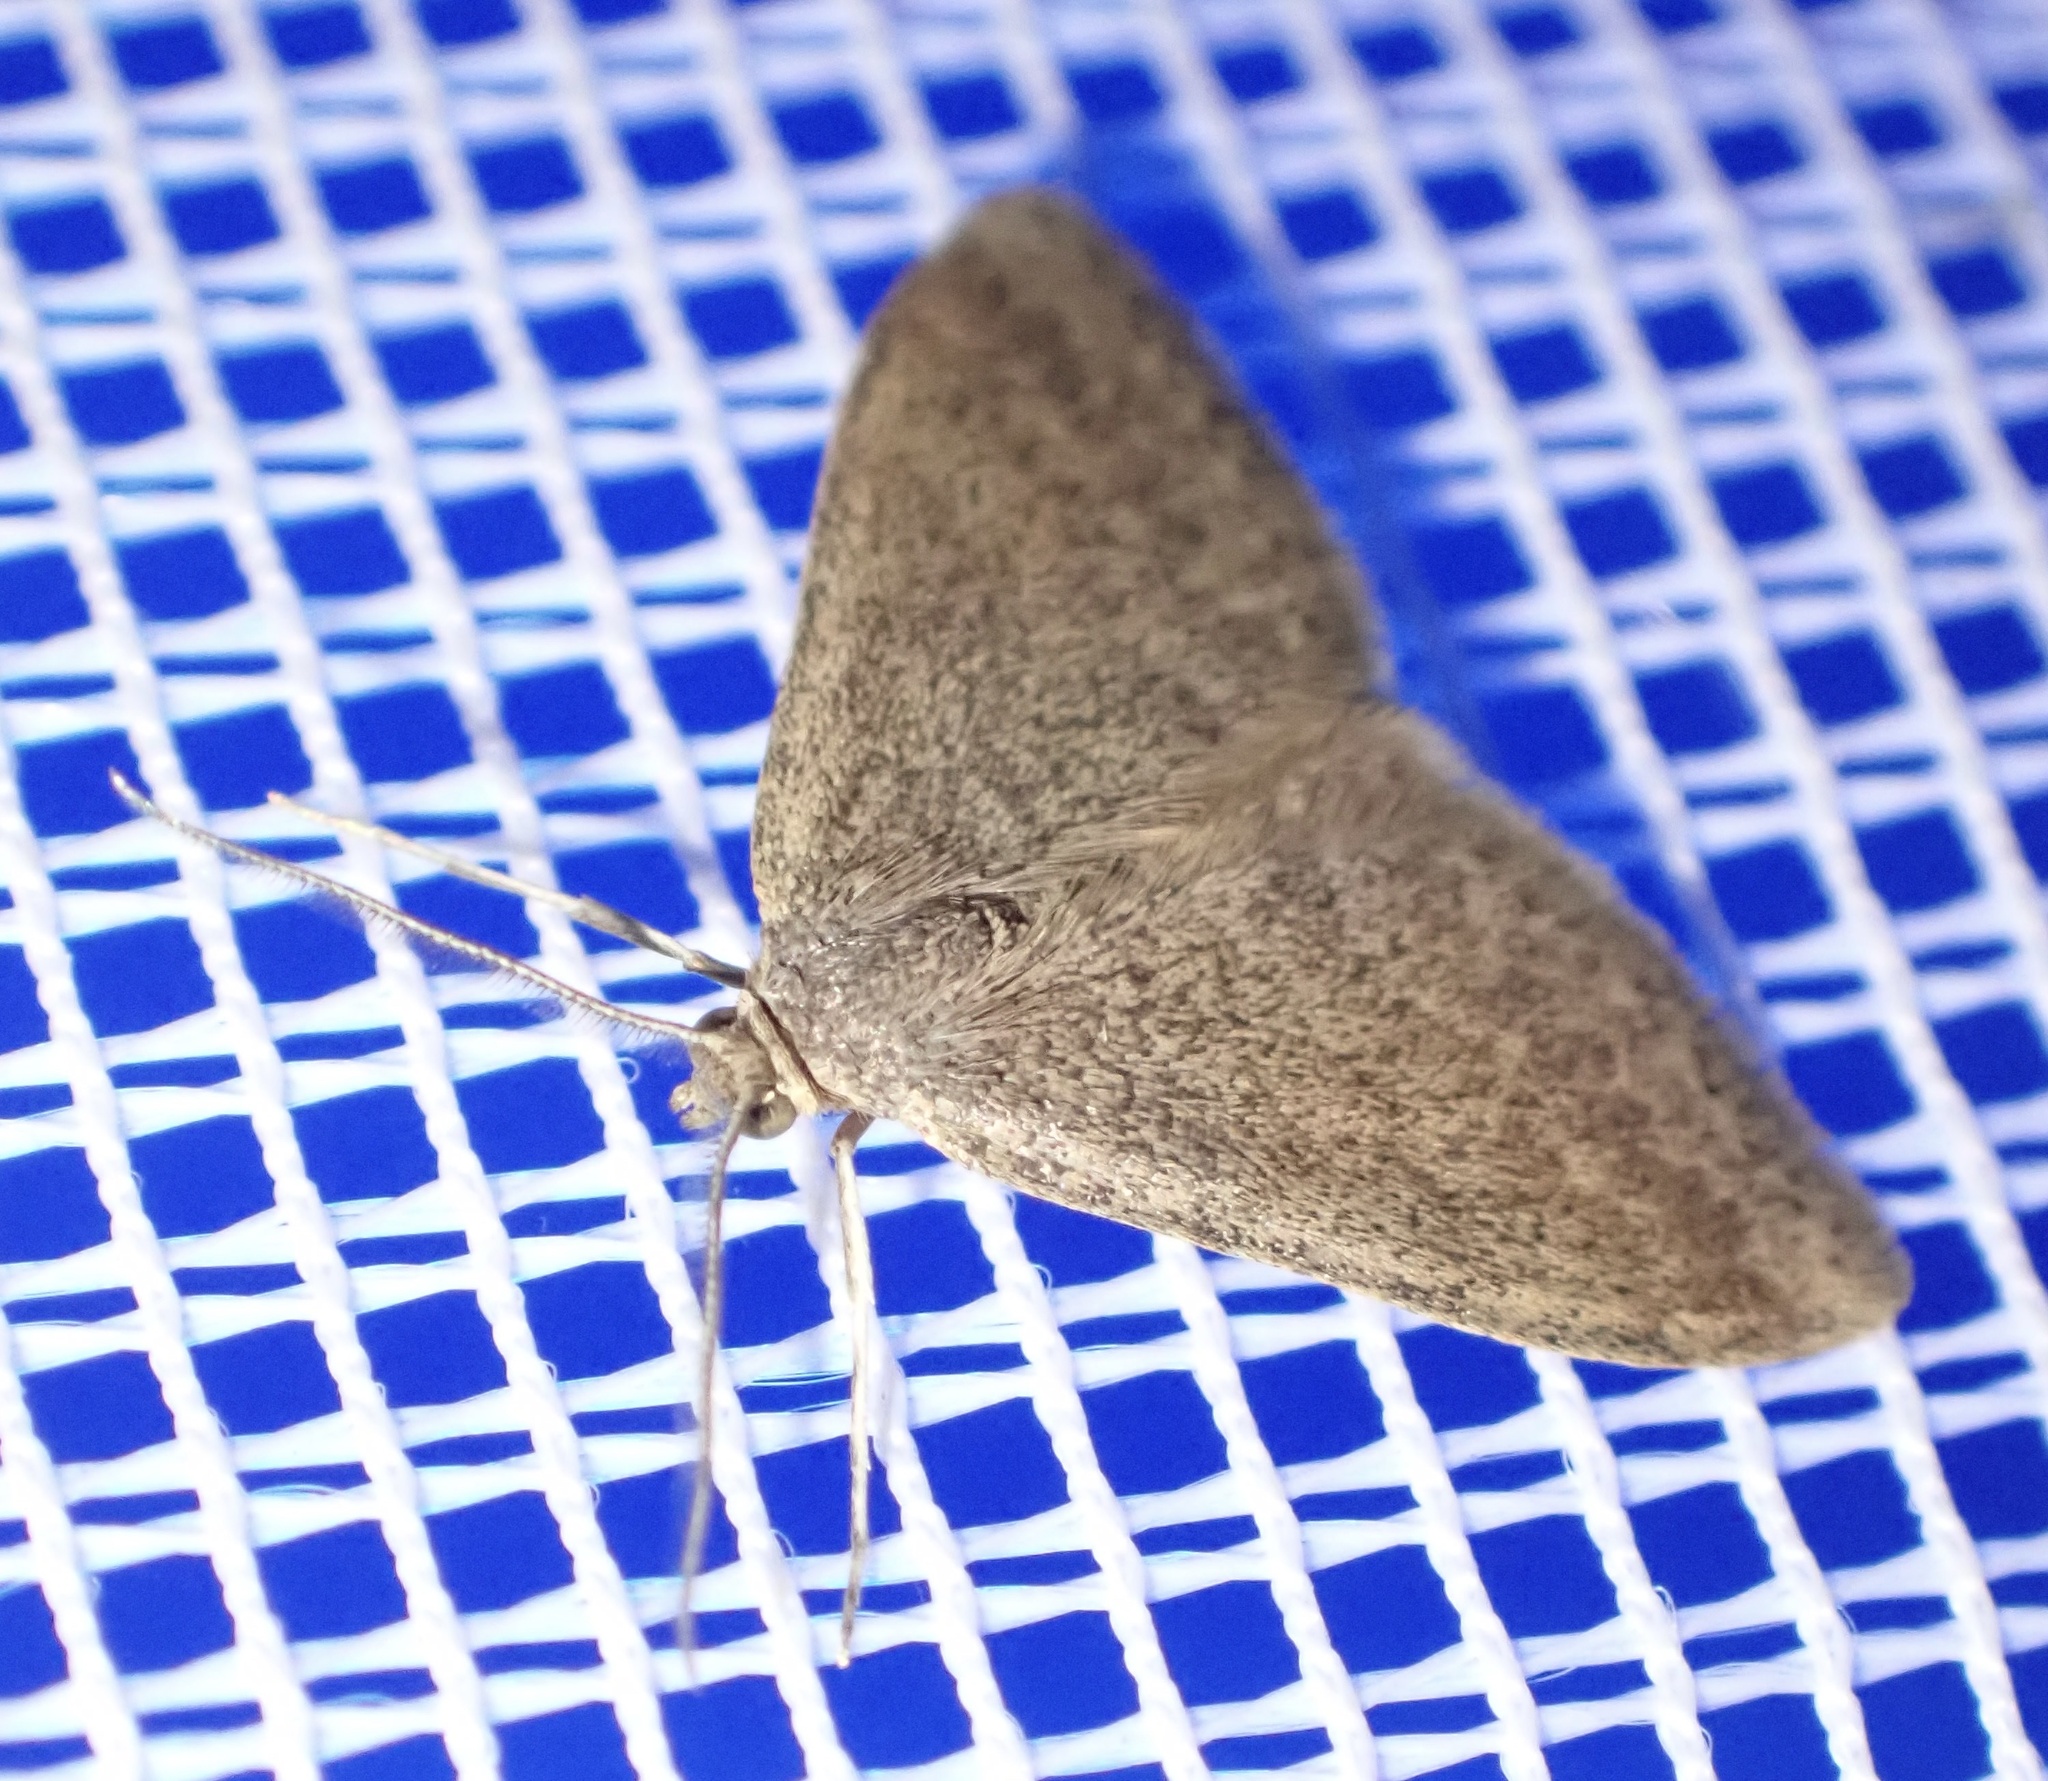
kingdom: Animalia
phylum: Arthropoda
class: Insecta
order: Lepidoptera
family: Geometridae
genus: Scopula
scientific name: Scopula lydia
